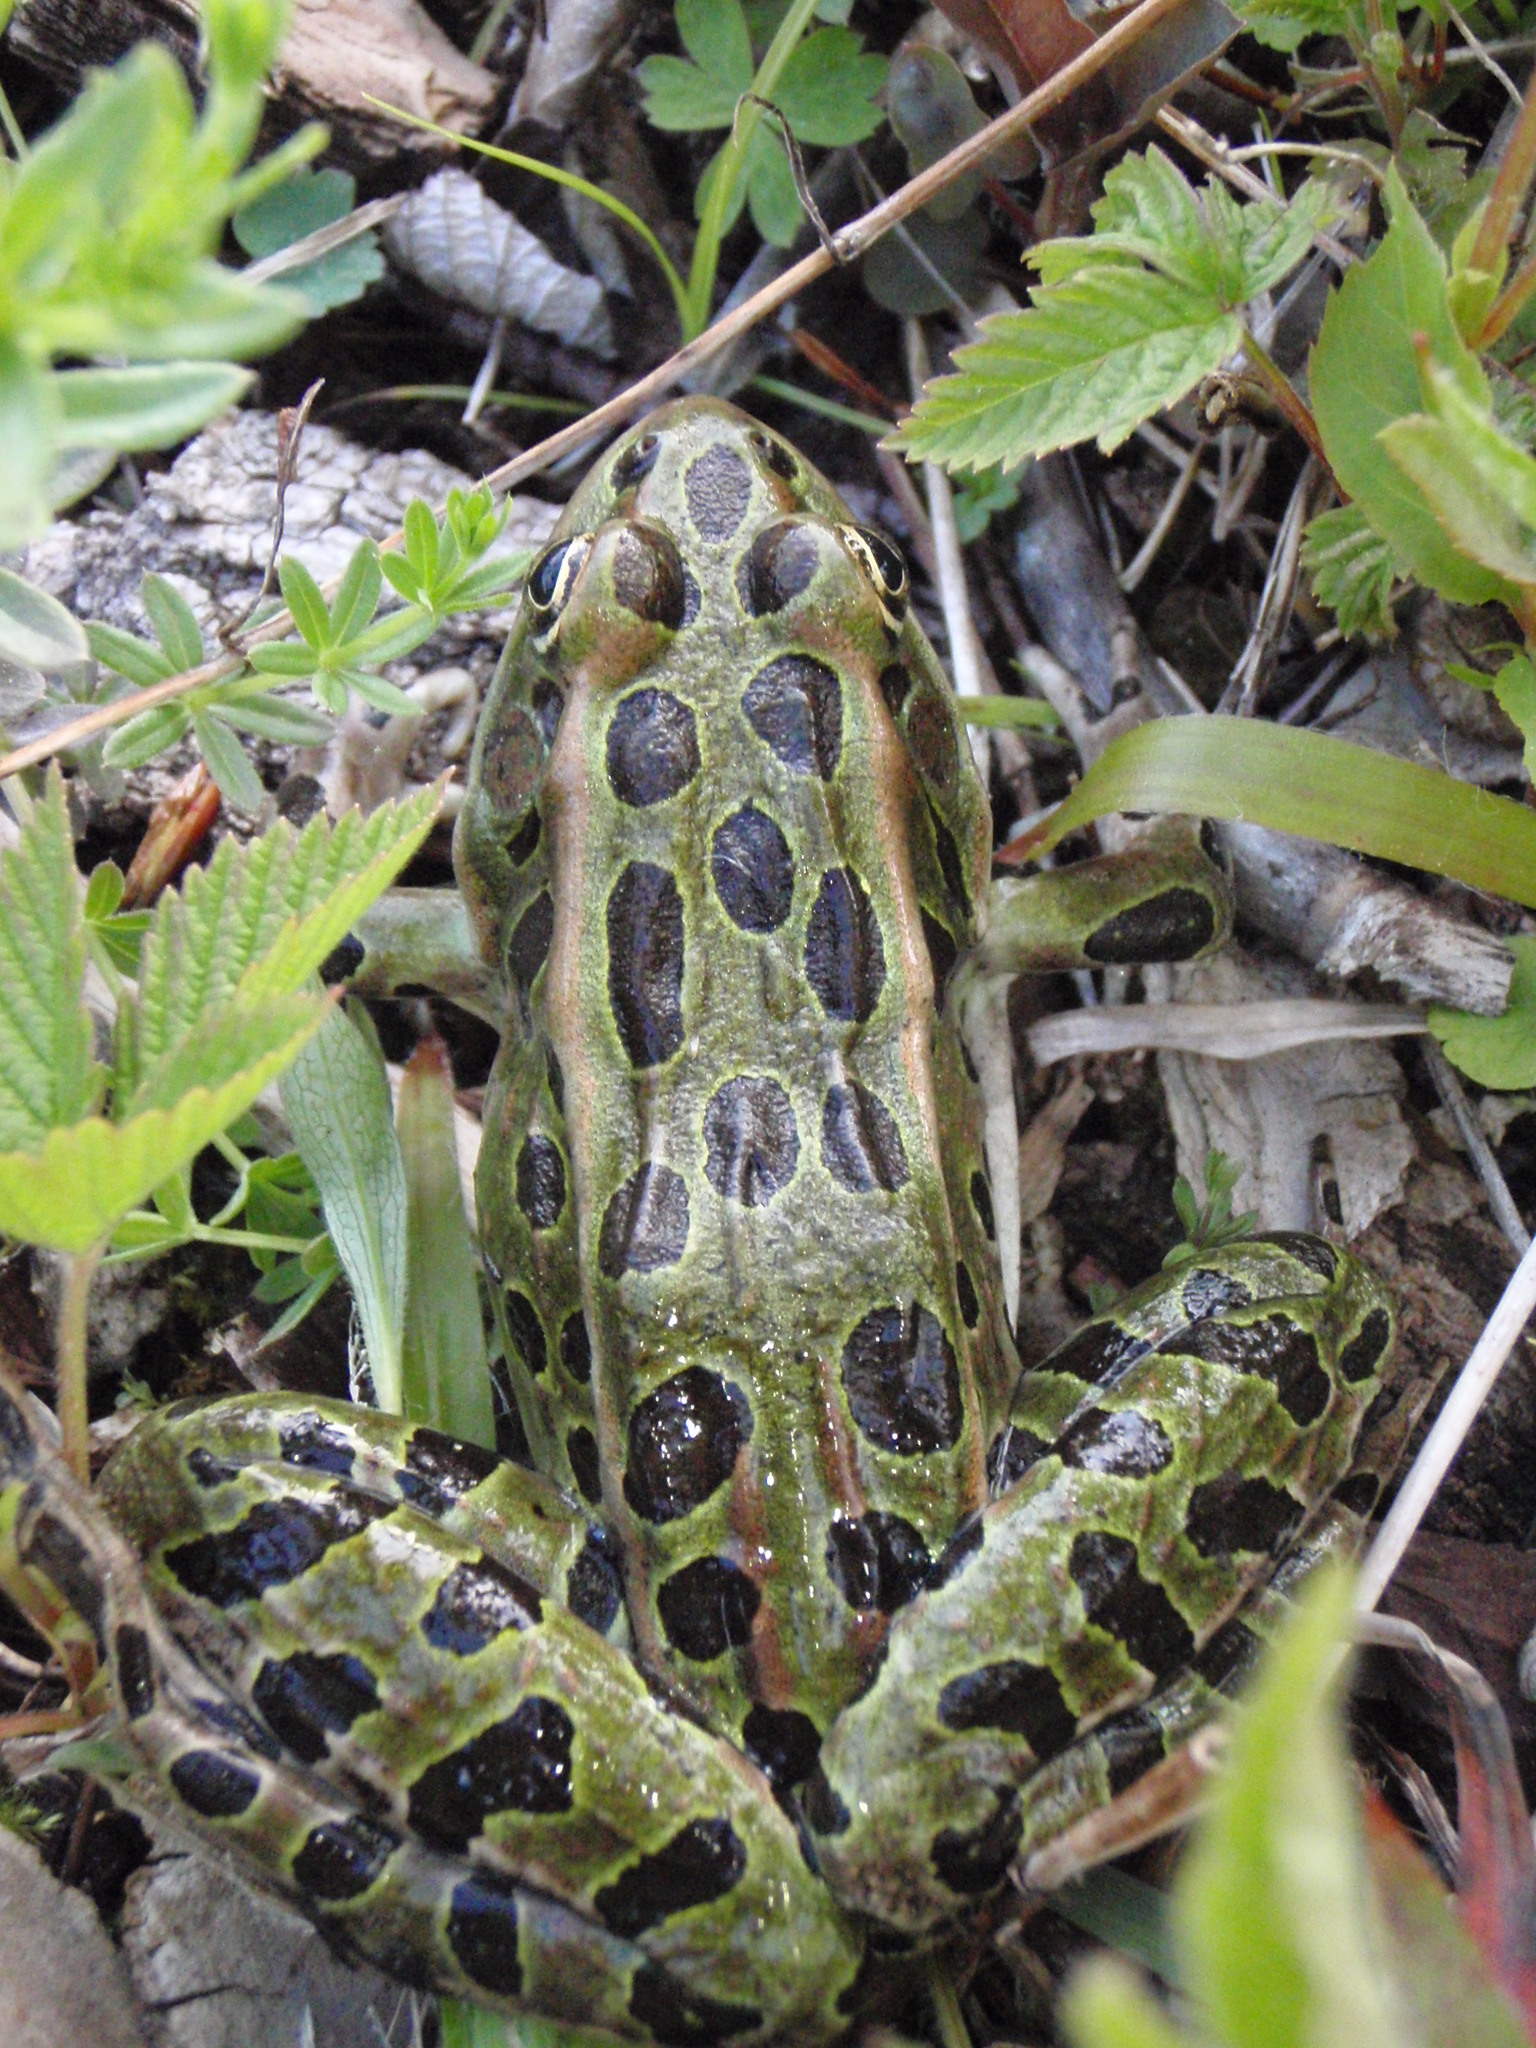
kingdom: Animalia
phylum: Chordata
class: Amphibia
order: Anura
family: Ranidae
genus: Lithobates
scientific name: Lithobates pipiens
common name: Northern leopard frog
